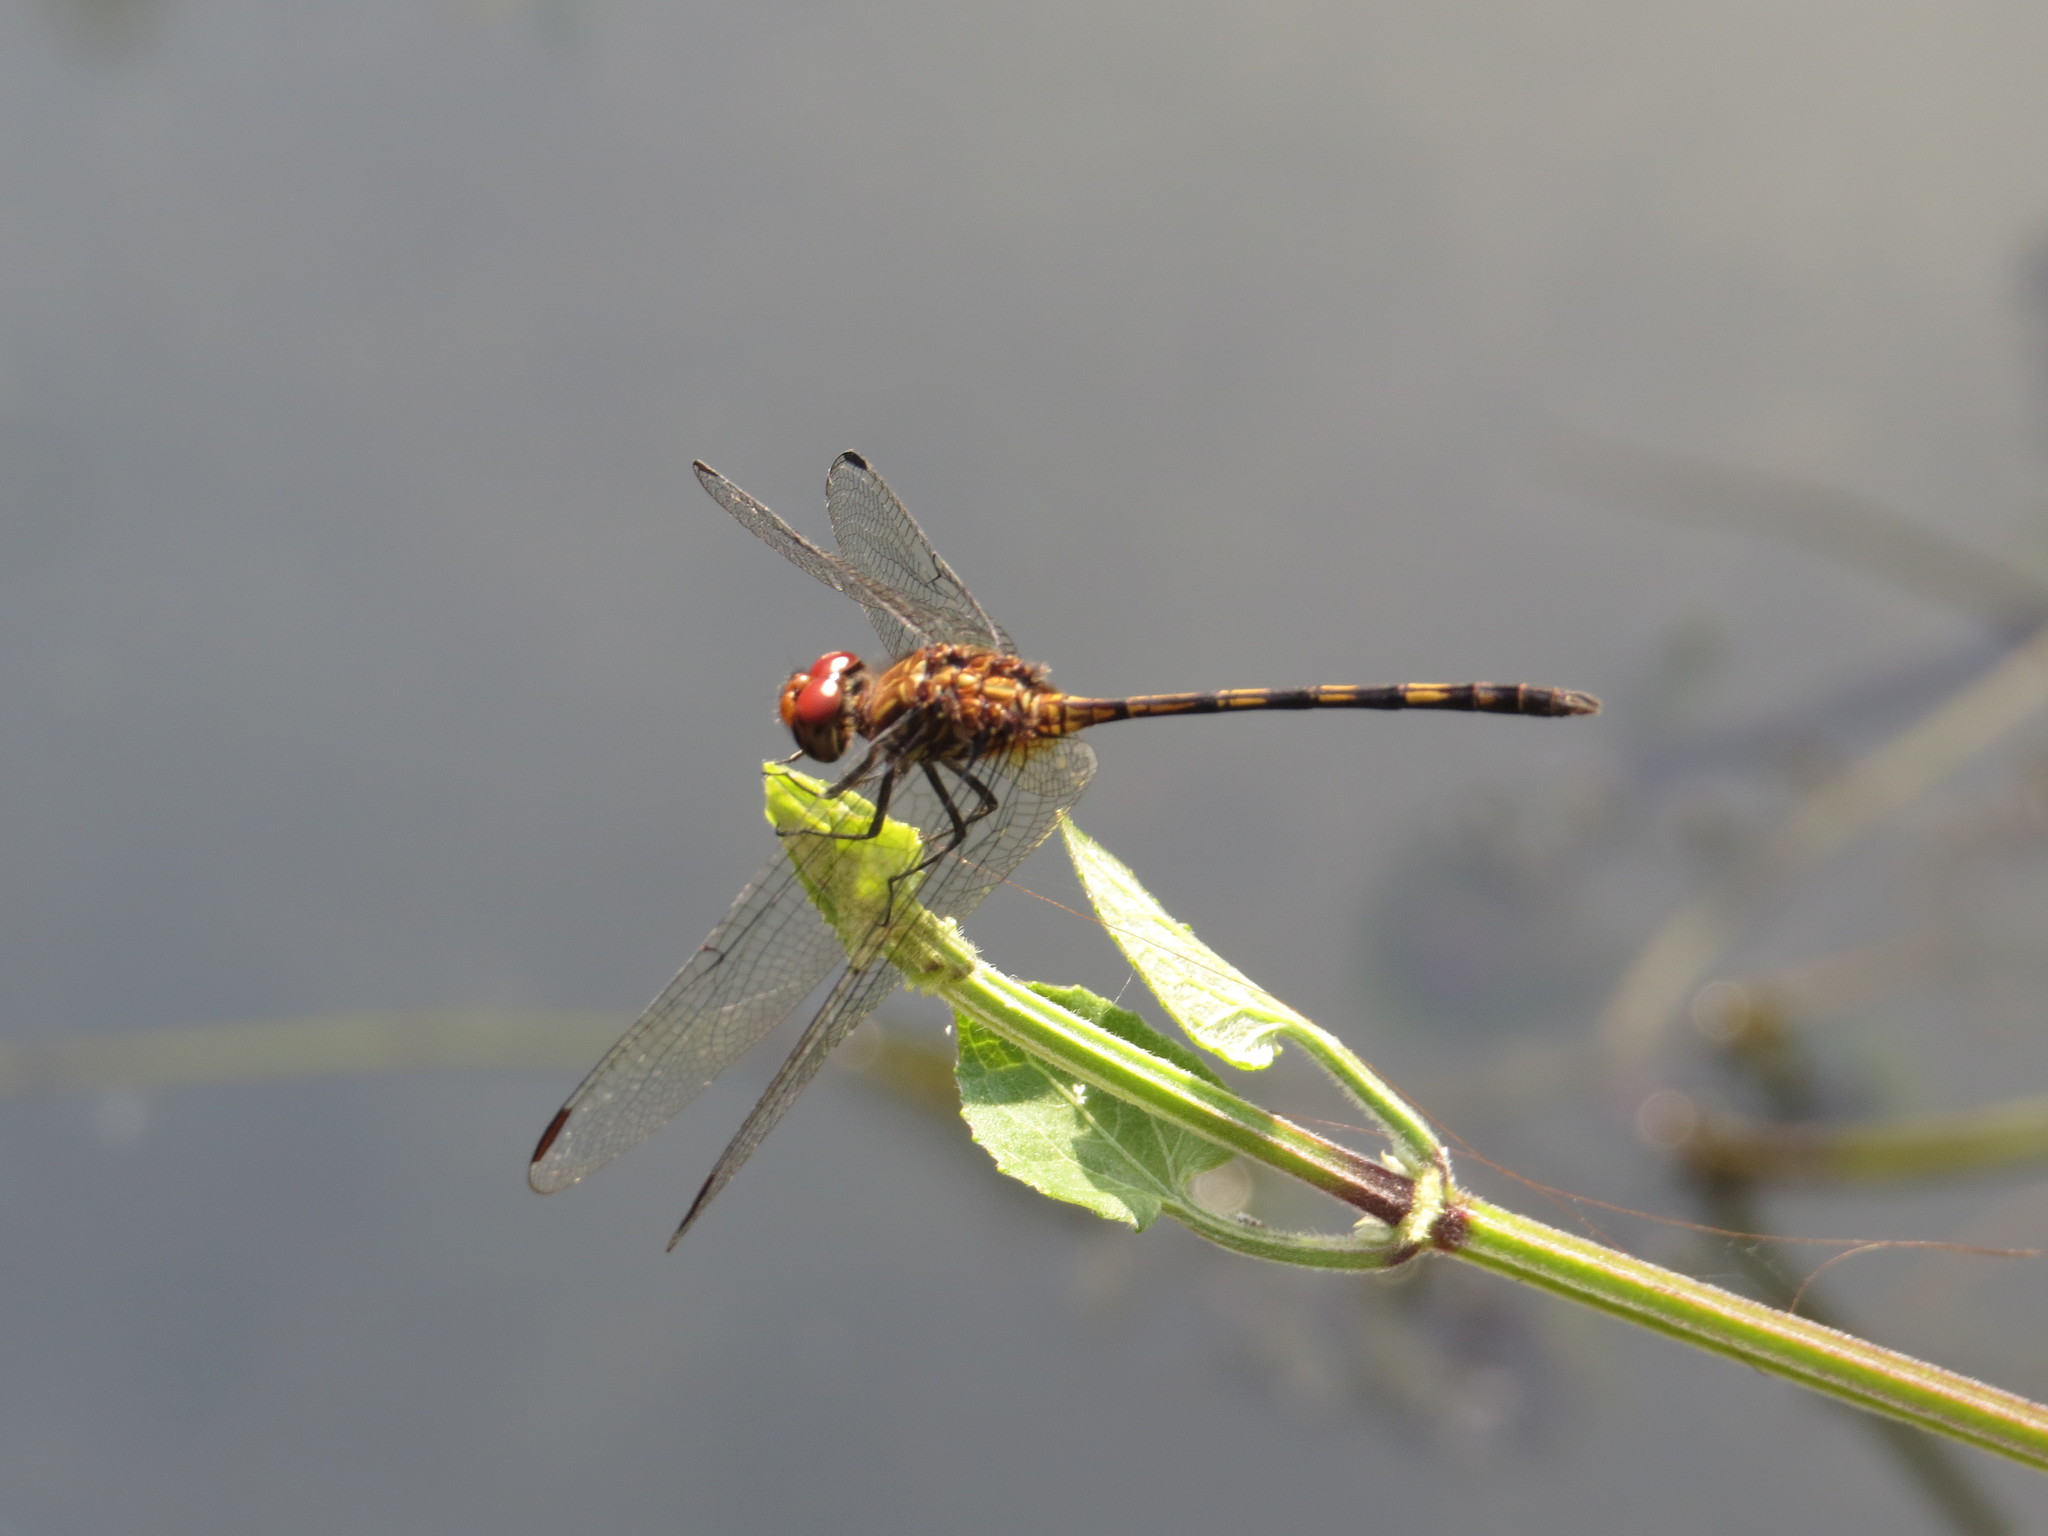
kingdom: Animalia
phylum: Arthropoda
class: Insecta
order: Odonata
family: Libellulidae
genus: Dythemis
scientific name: Dythemis sterilis
